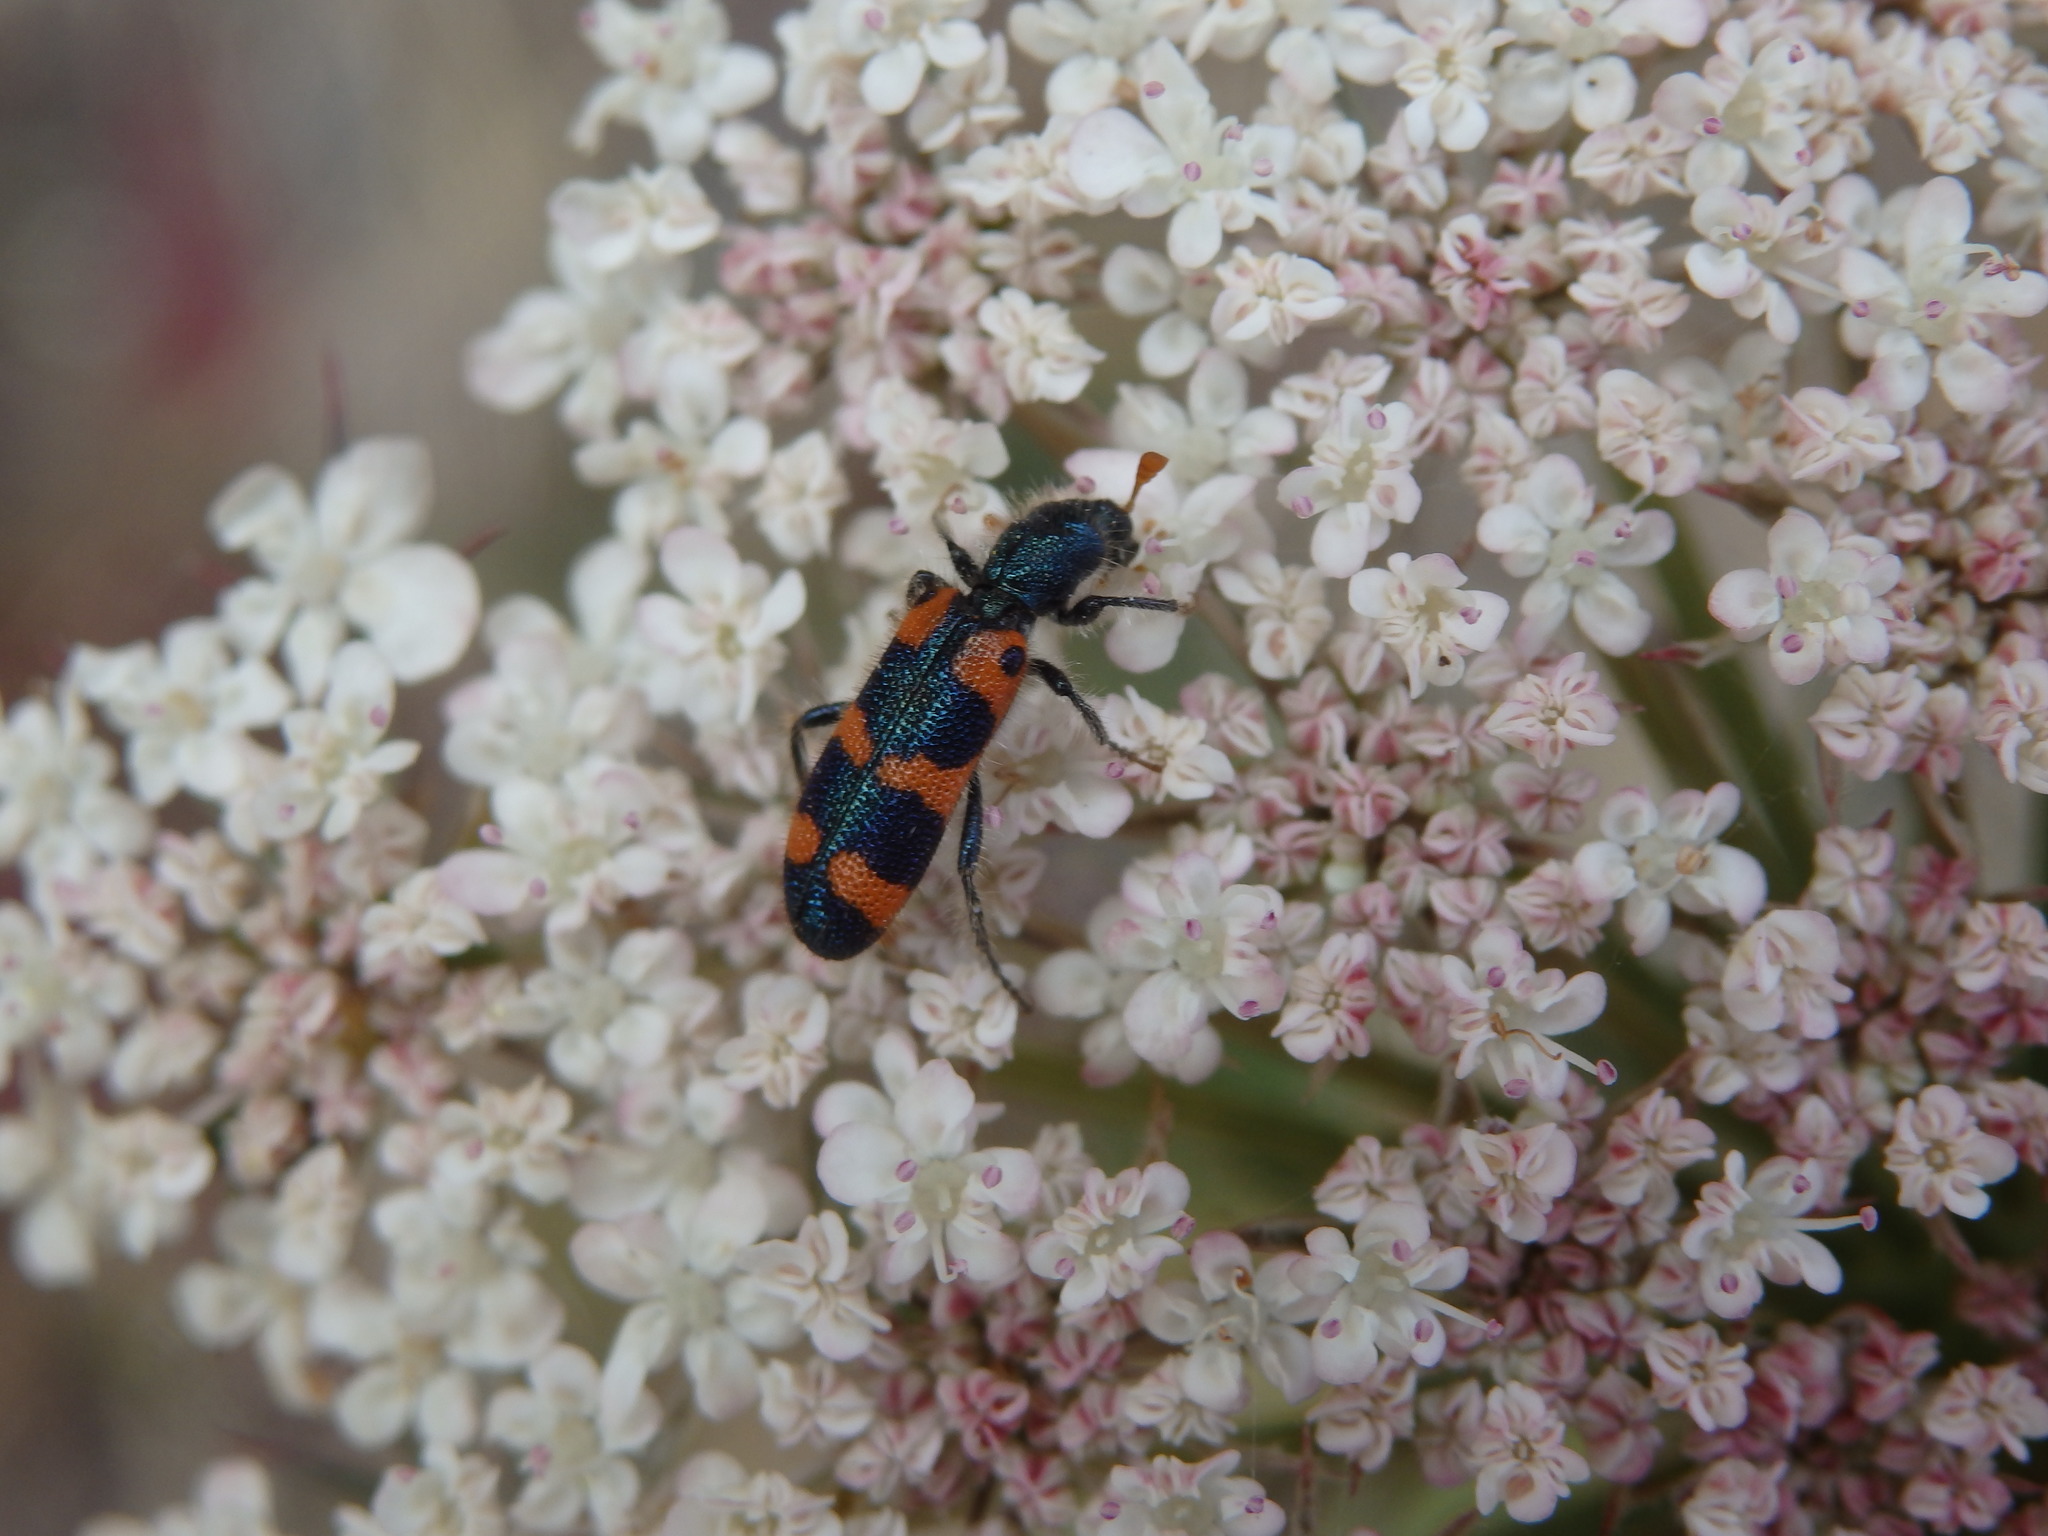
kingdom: Animalia
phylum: Arthropoda
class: Insecta
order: Coleoptera
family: Cleridae
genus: Trichodes
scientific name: Trichodes leucopsideus
